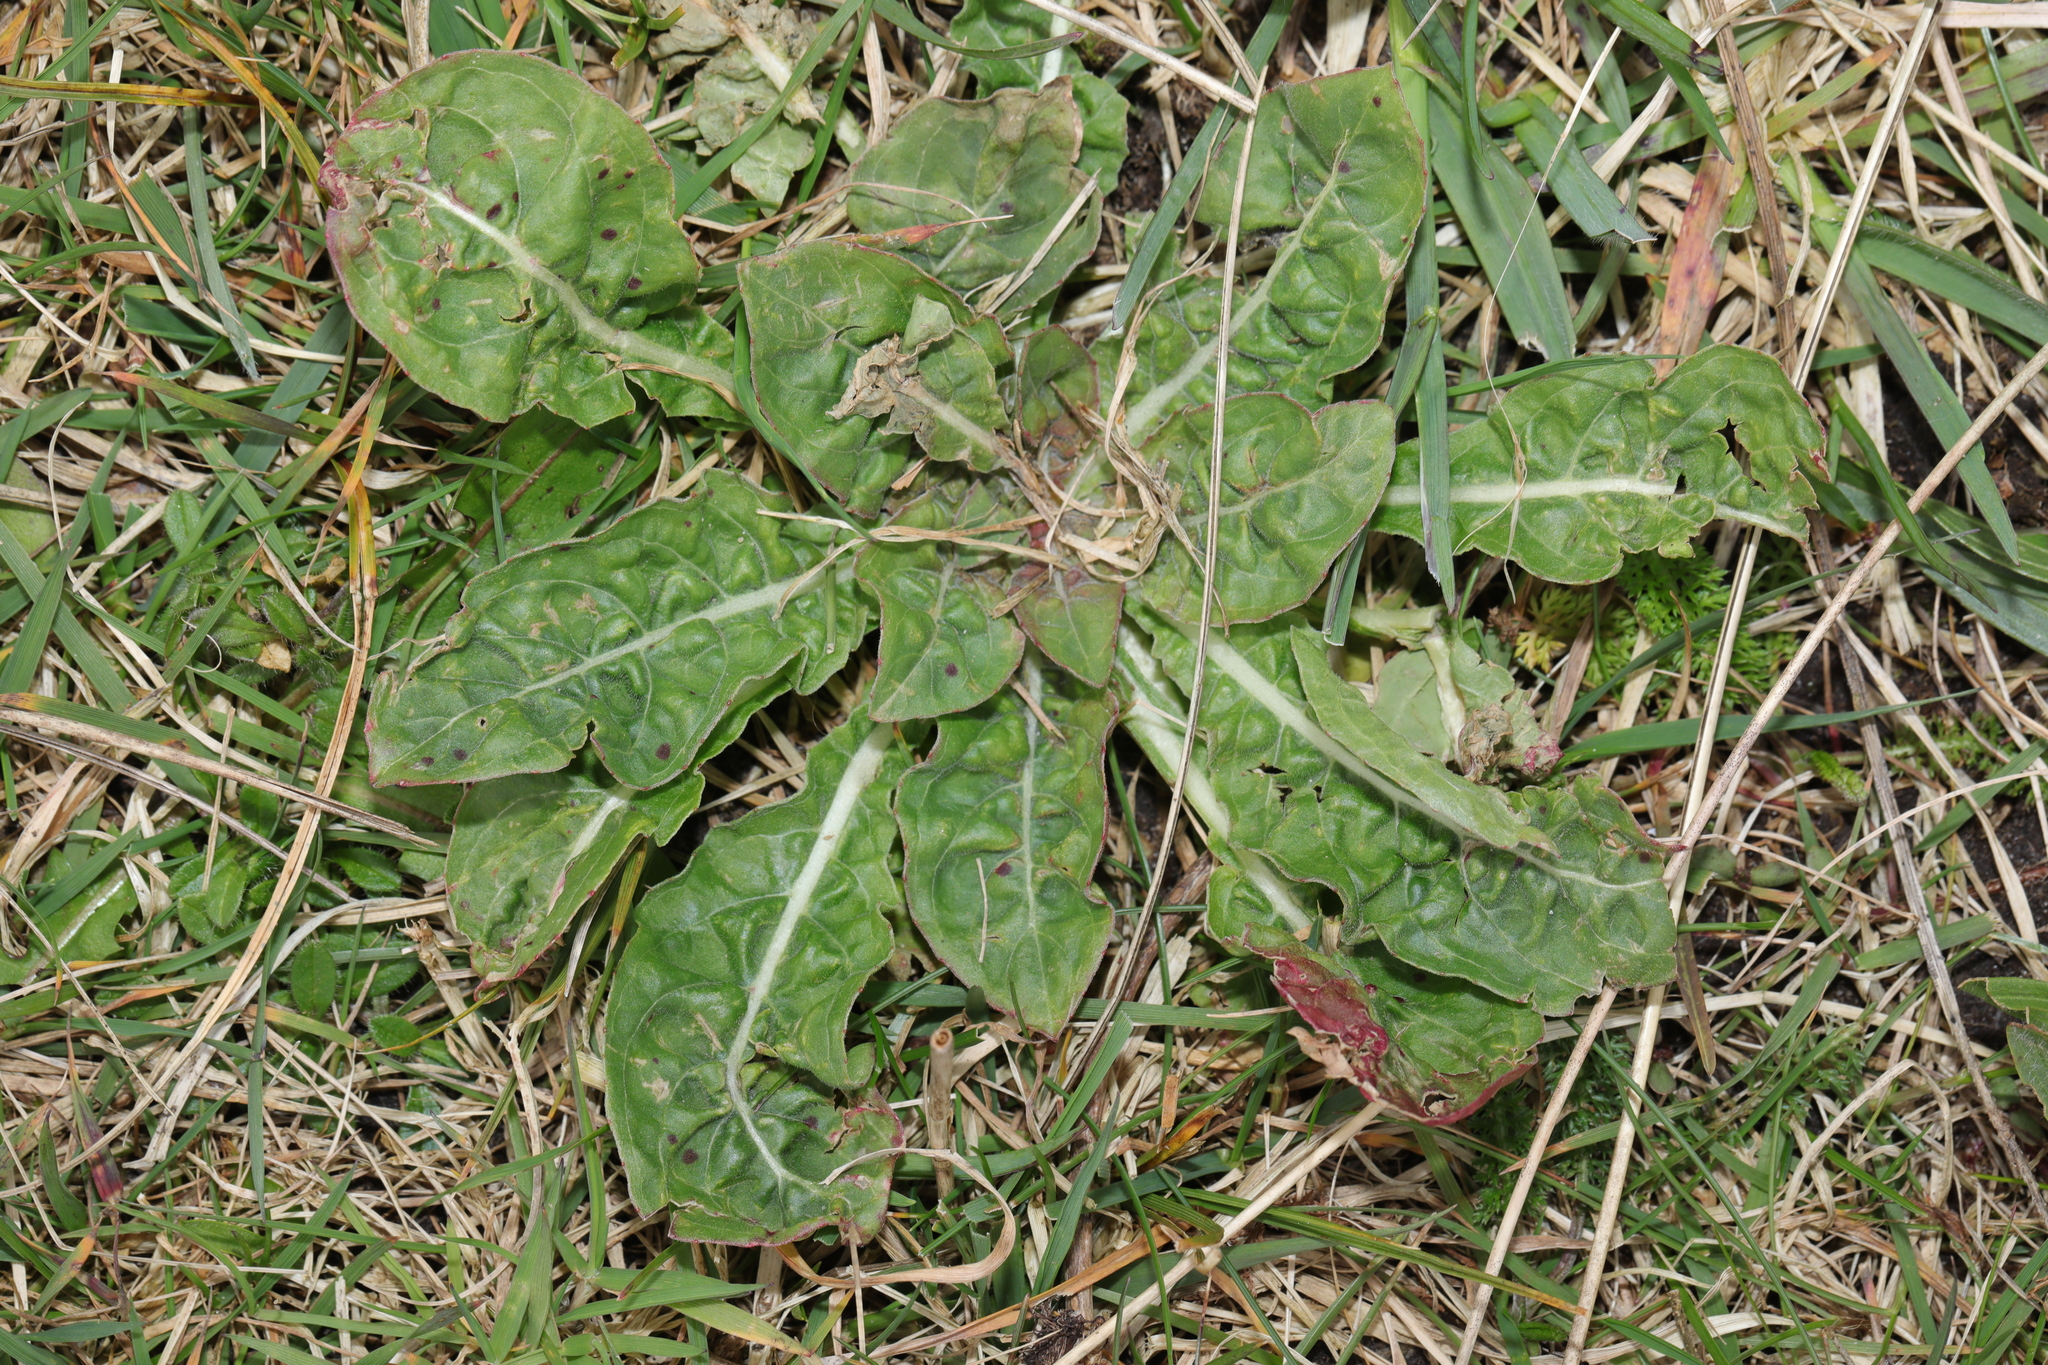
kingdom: Plantae
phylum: Tracheophyta
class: Magnoliopsida
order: Myrtales
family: Onagraceae
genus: Oenothera
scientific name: Oenothera
